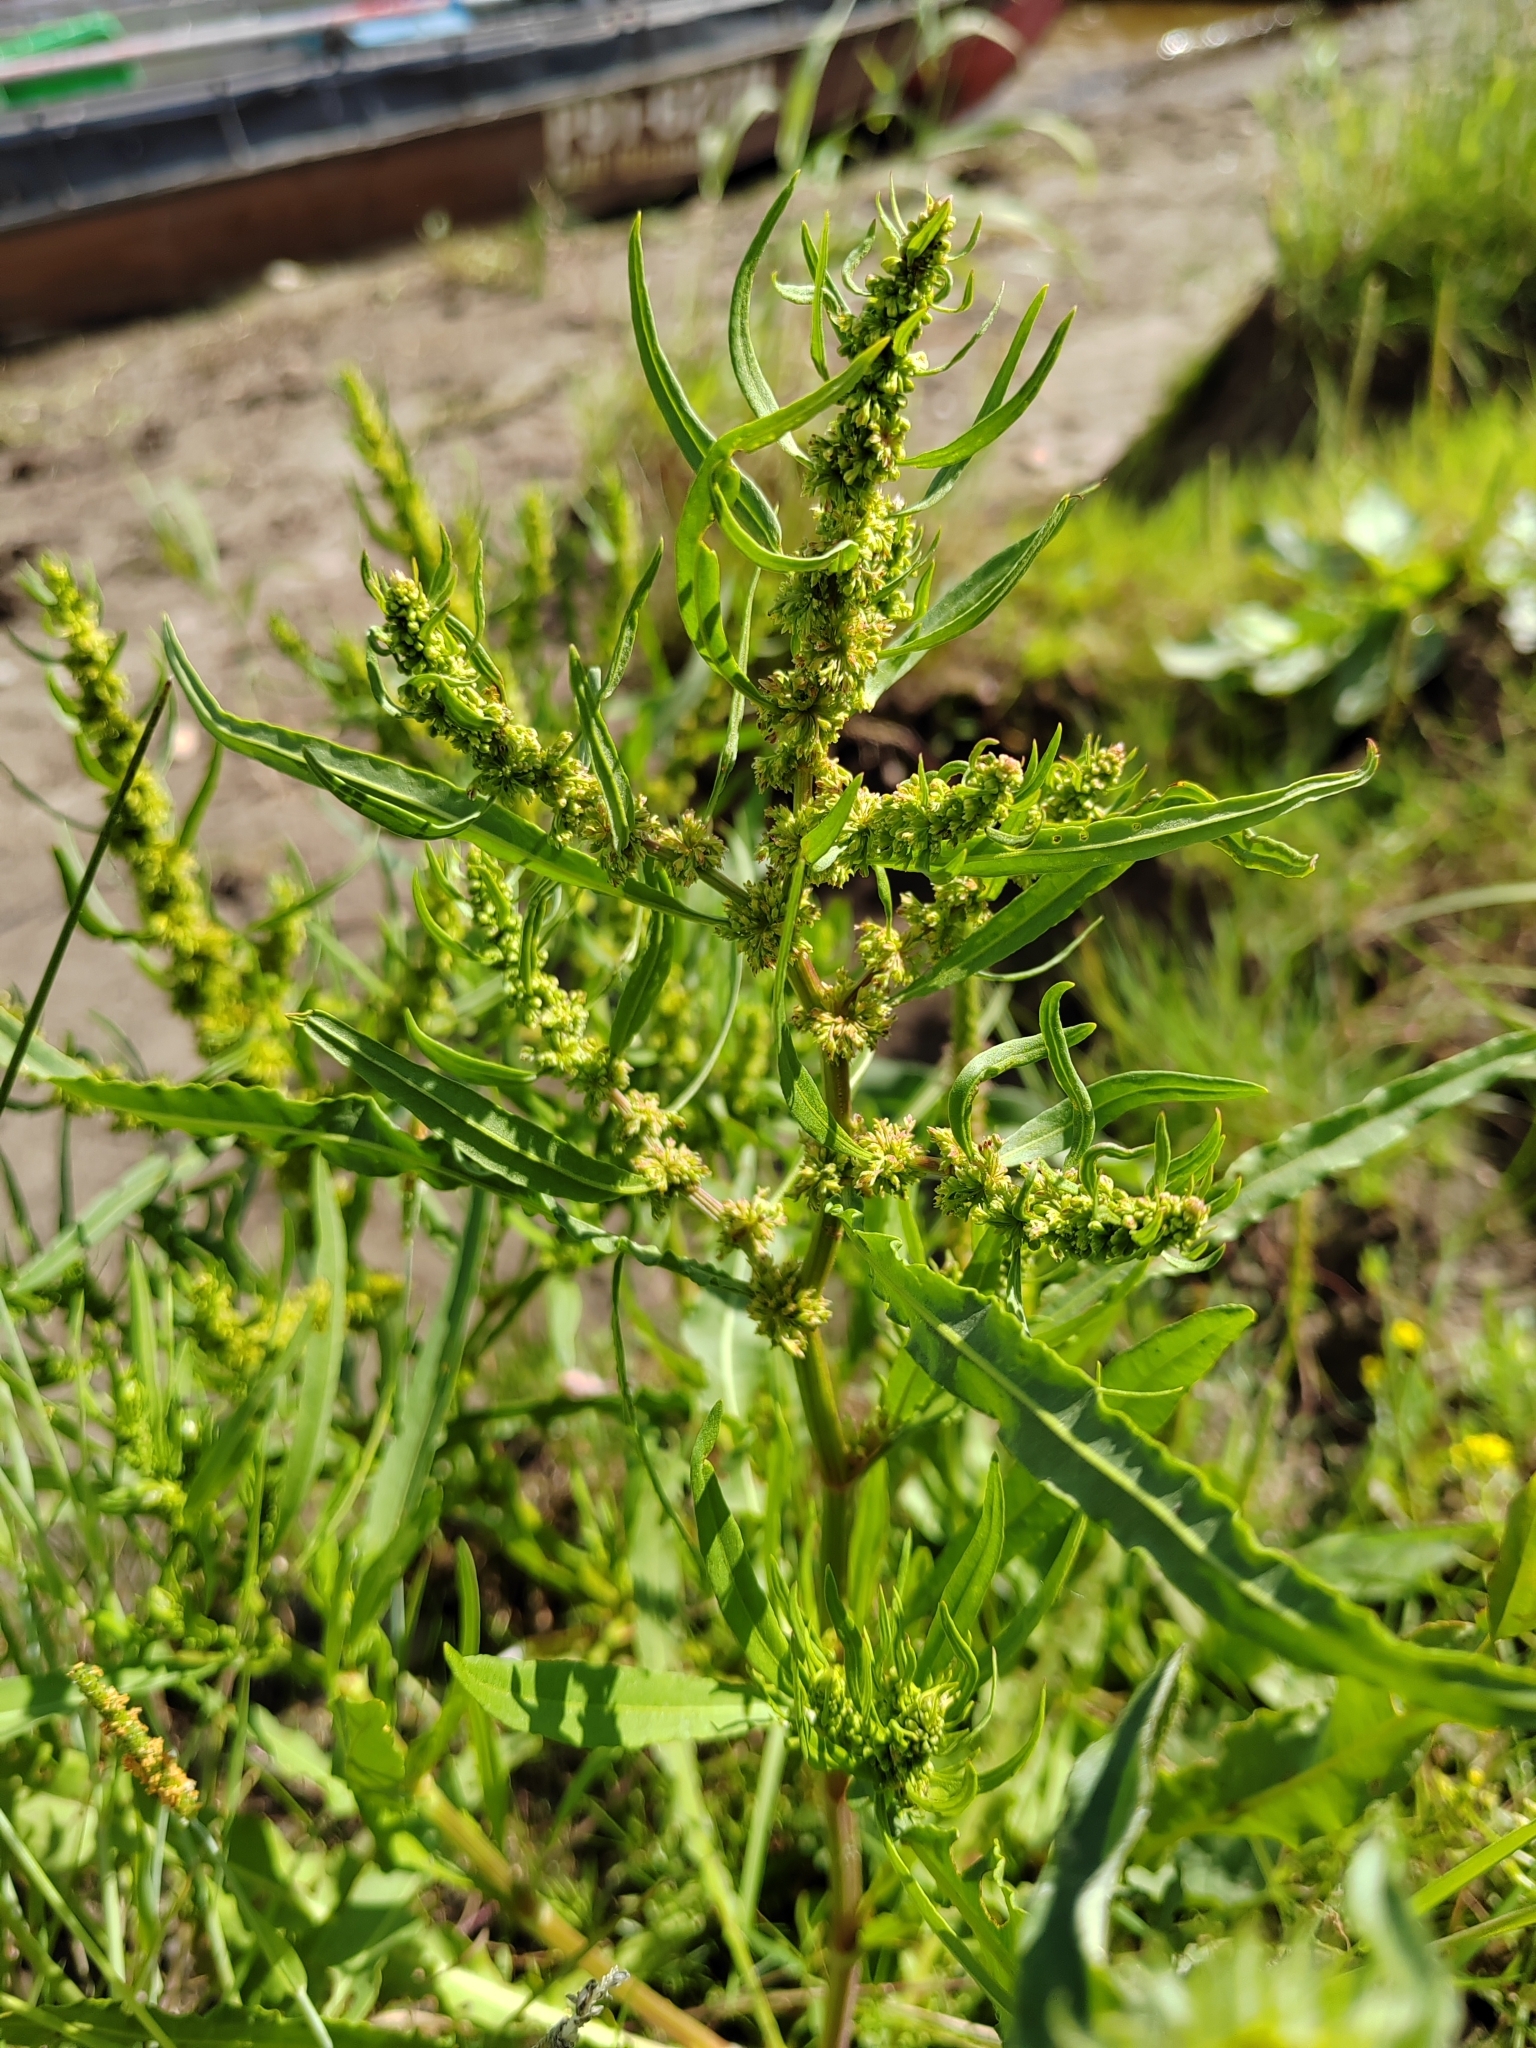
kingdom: Plantae
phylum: Tracheophyta
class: Magnoliopsida
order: Caryophyllales
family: Polygonaceae
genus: Rumex
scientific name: Rumex maritimus
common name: Golden dock
